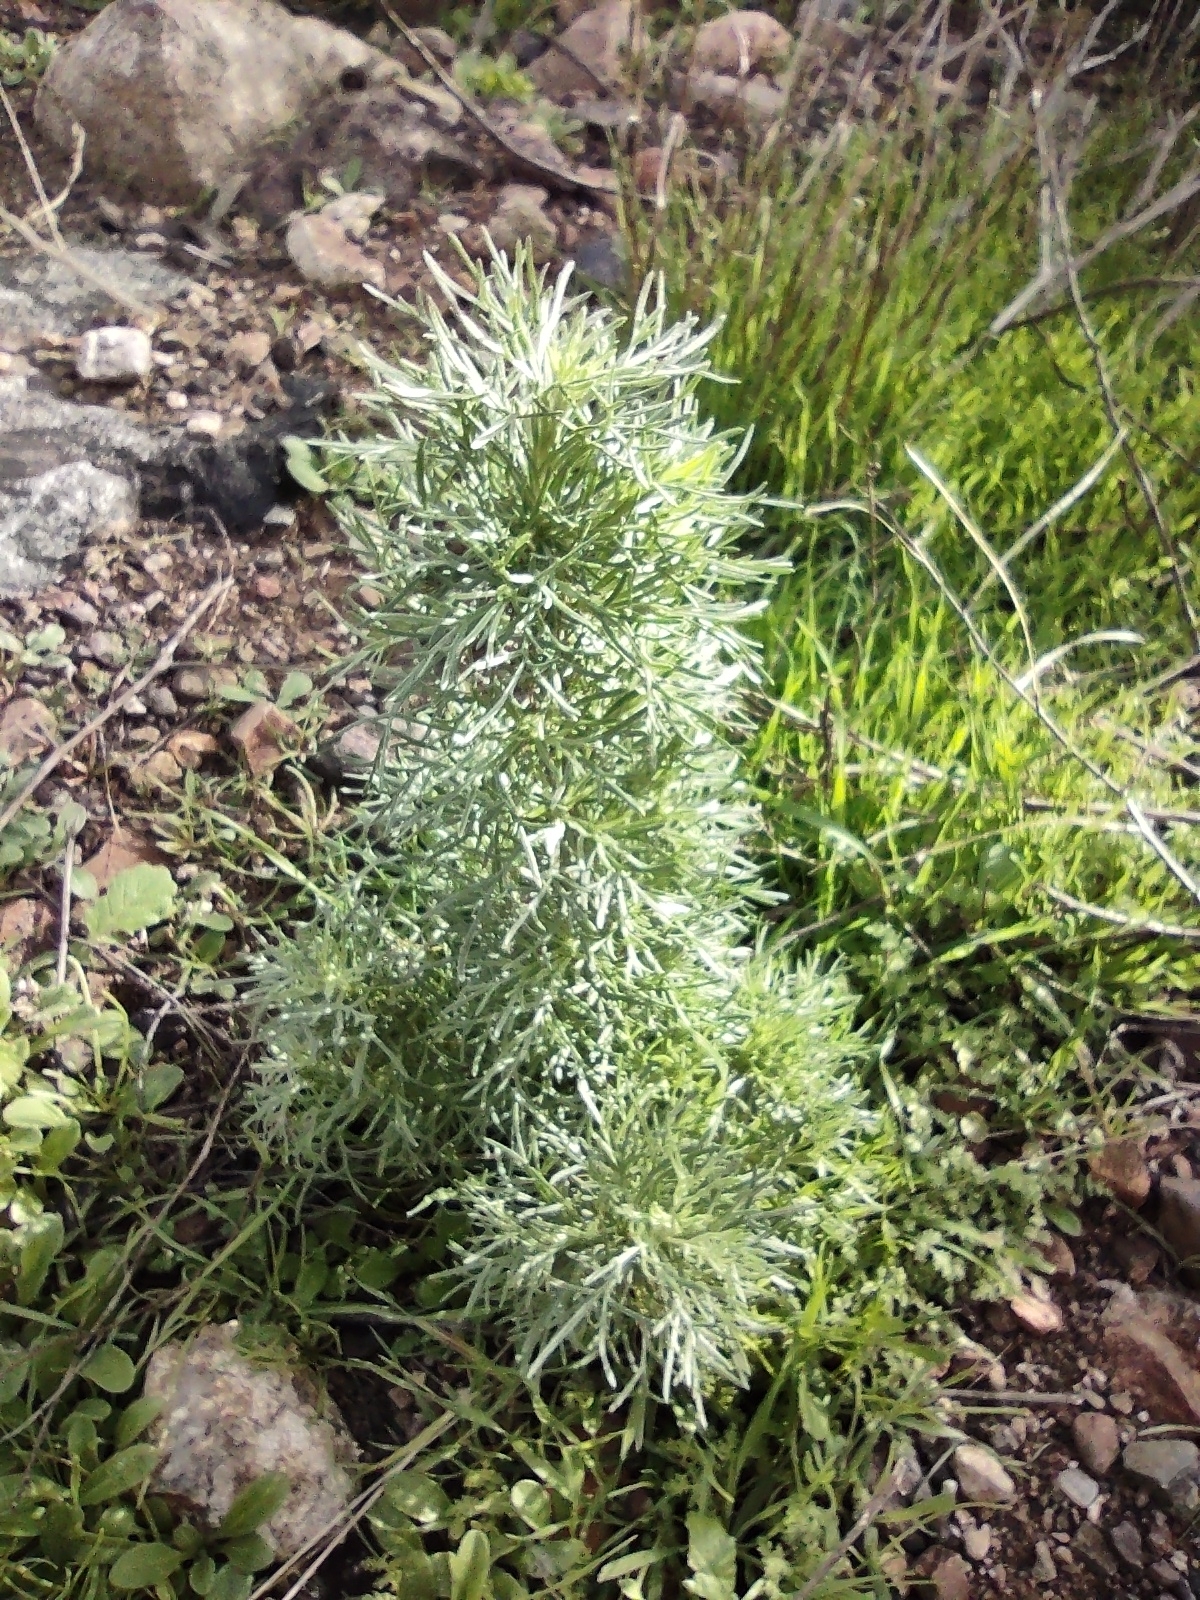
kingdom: Plantae
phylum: Tracheophyta
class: Magnoliopsida
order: Asterales
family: Asteraceae
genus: Artemisia
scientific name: Artemisia californica
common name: California sagebrush
